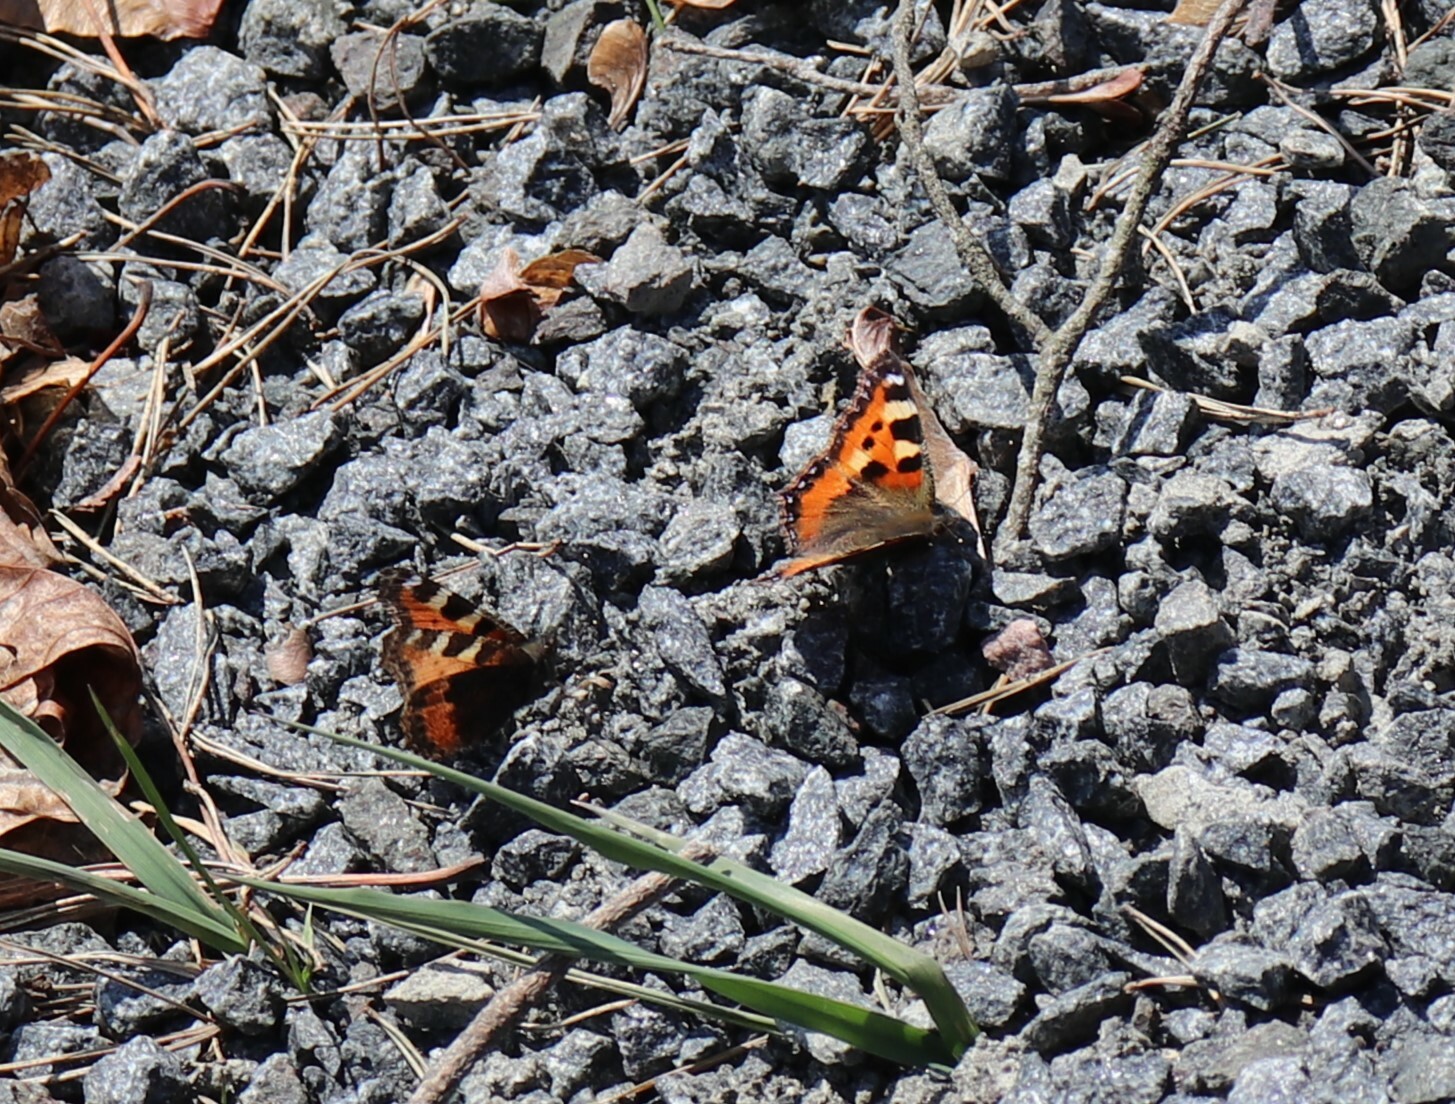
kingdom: Animalia
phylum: Arthropoda
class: Insecta
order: Lepidoptera
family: Nymphalidae
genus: Aglais
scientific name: Aglais urticae
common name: Small tortoiseshell
